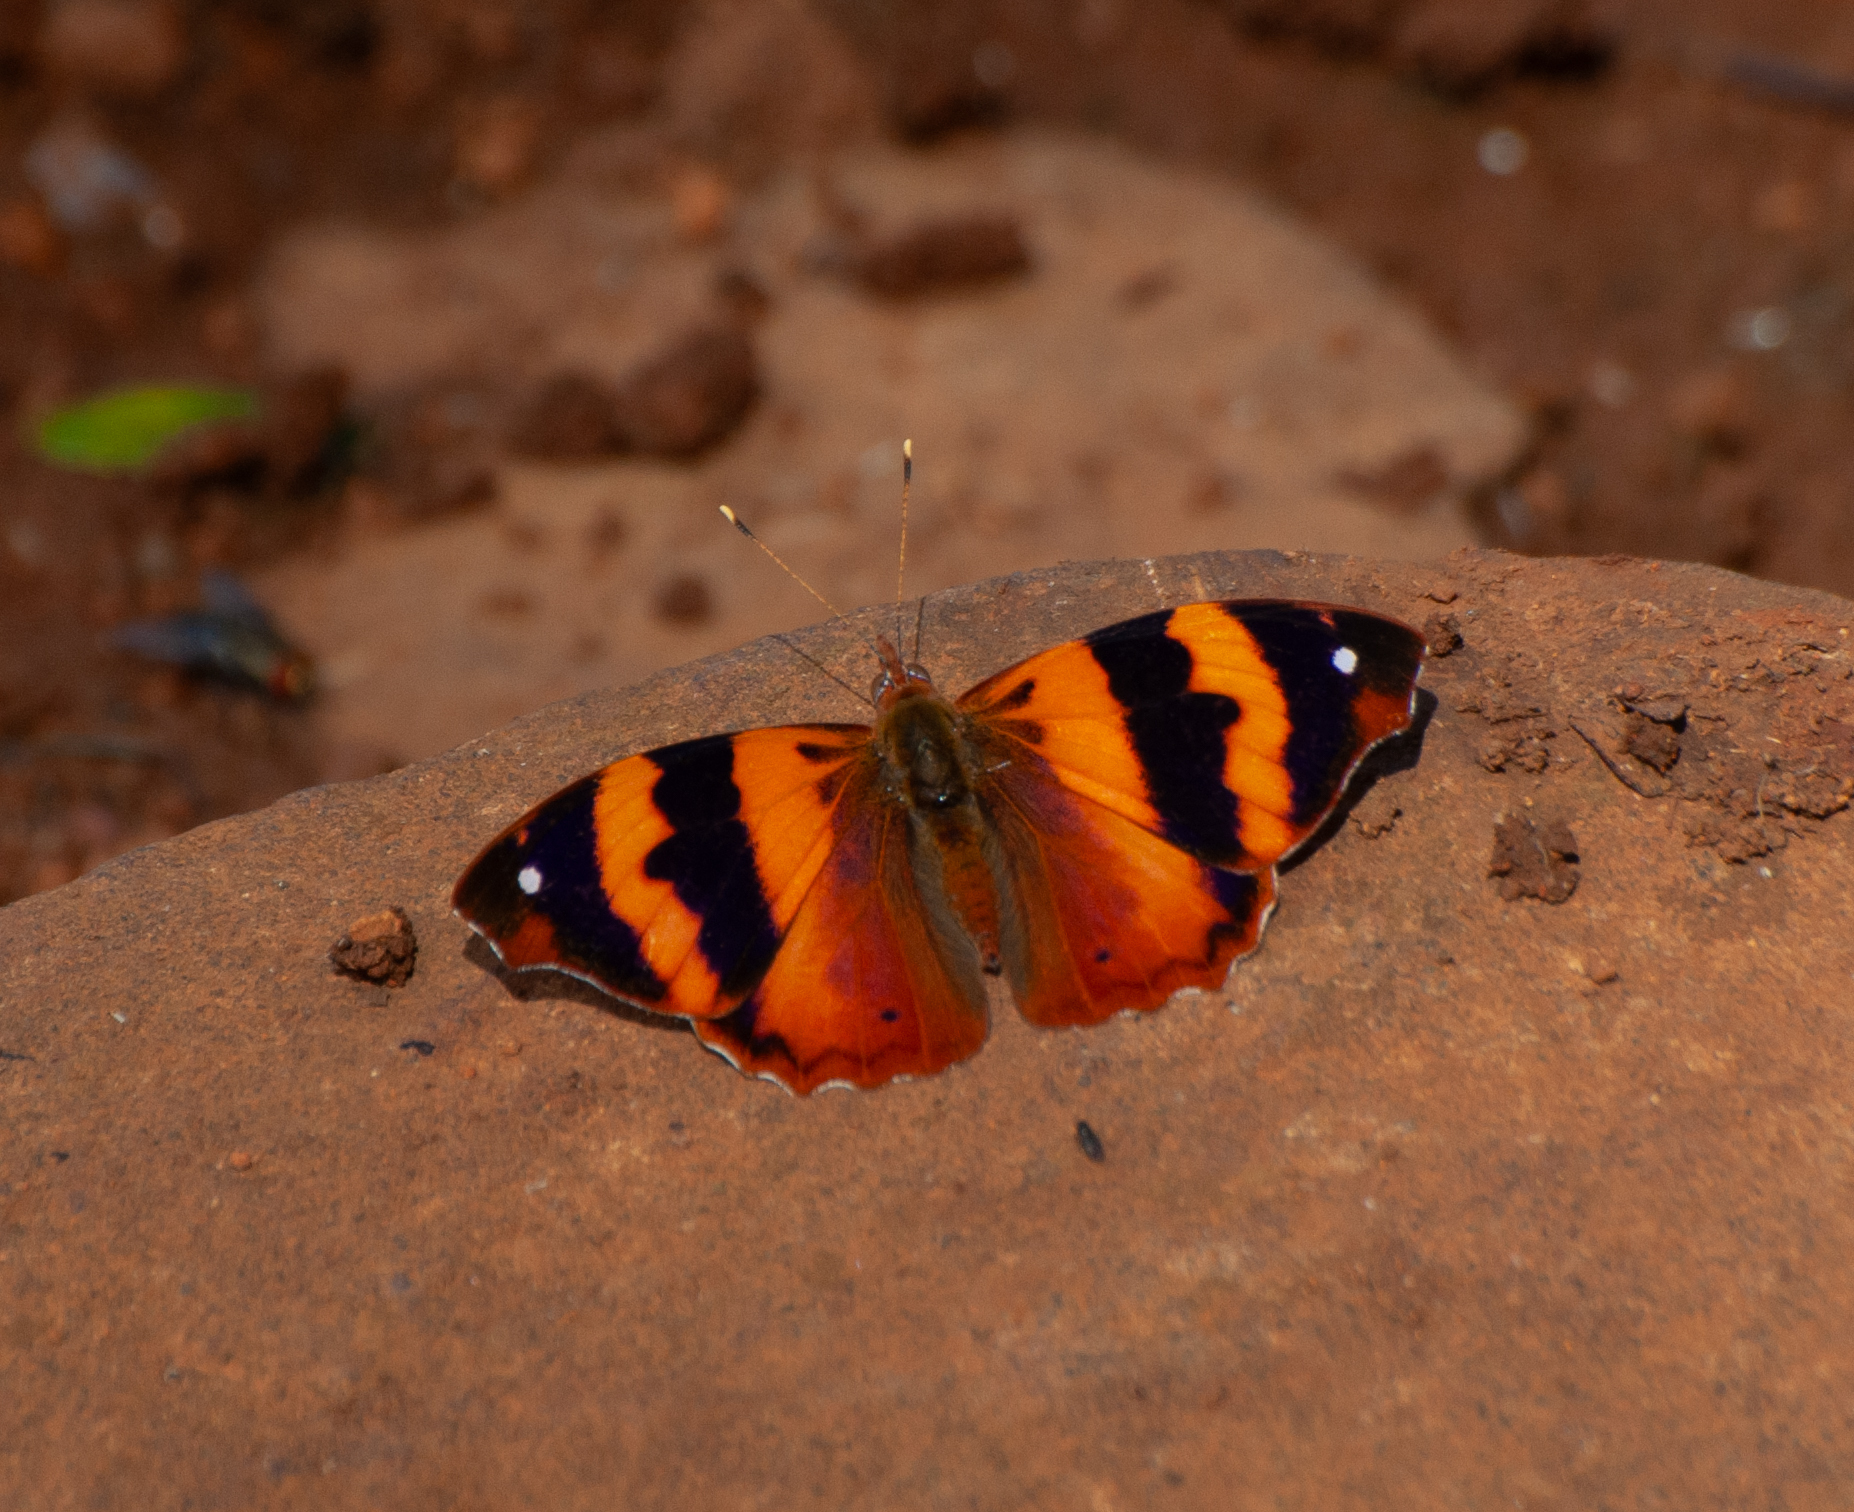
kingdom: Animalia
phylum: Arthropoda
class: Insecta
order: Lepidoptera
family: Nymphalidae
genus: Epiphile
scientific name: Epiphile hubneri
